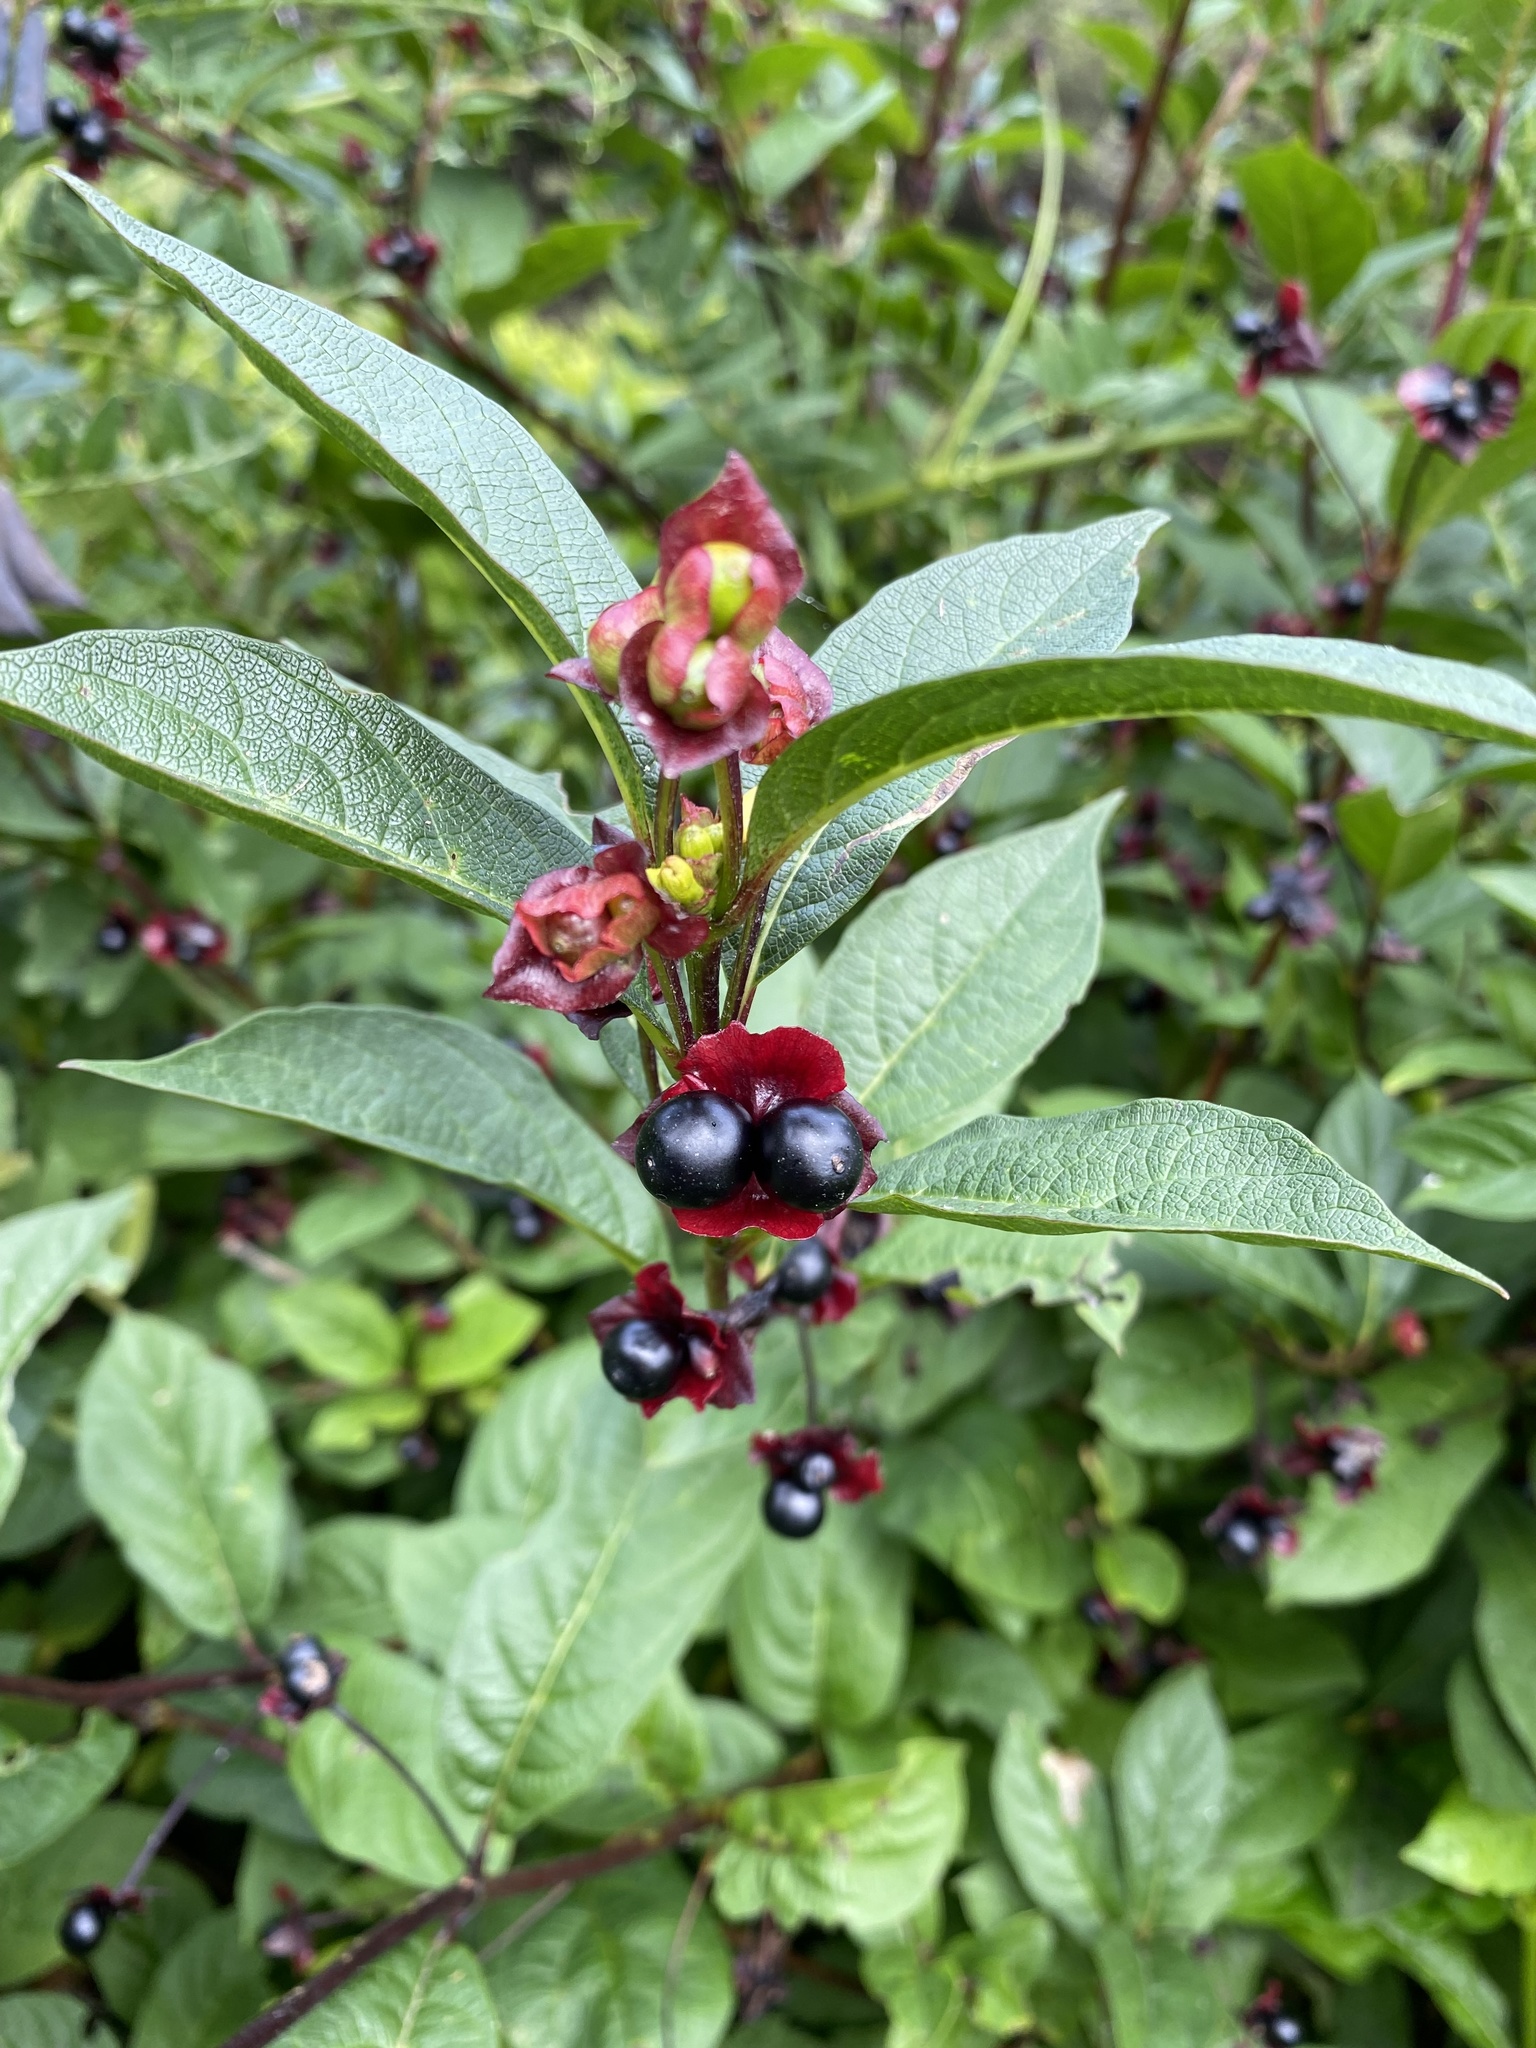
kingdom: Plantae
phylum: Tracheophyta
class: Magnoliopsida
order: Dipsacales
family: Caprifoliaceae
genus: Lonicera
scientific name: Lonicera involucrata
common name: Californian honeysuckle
